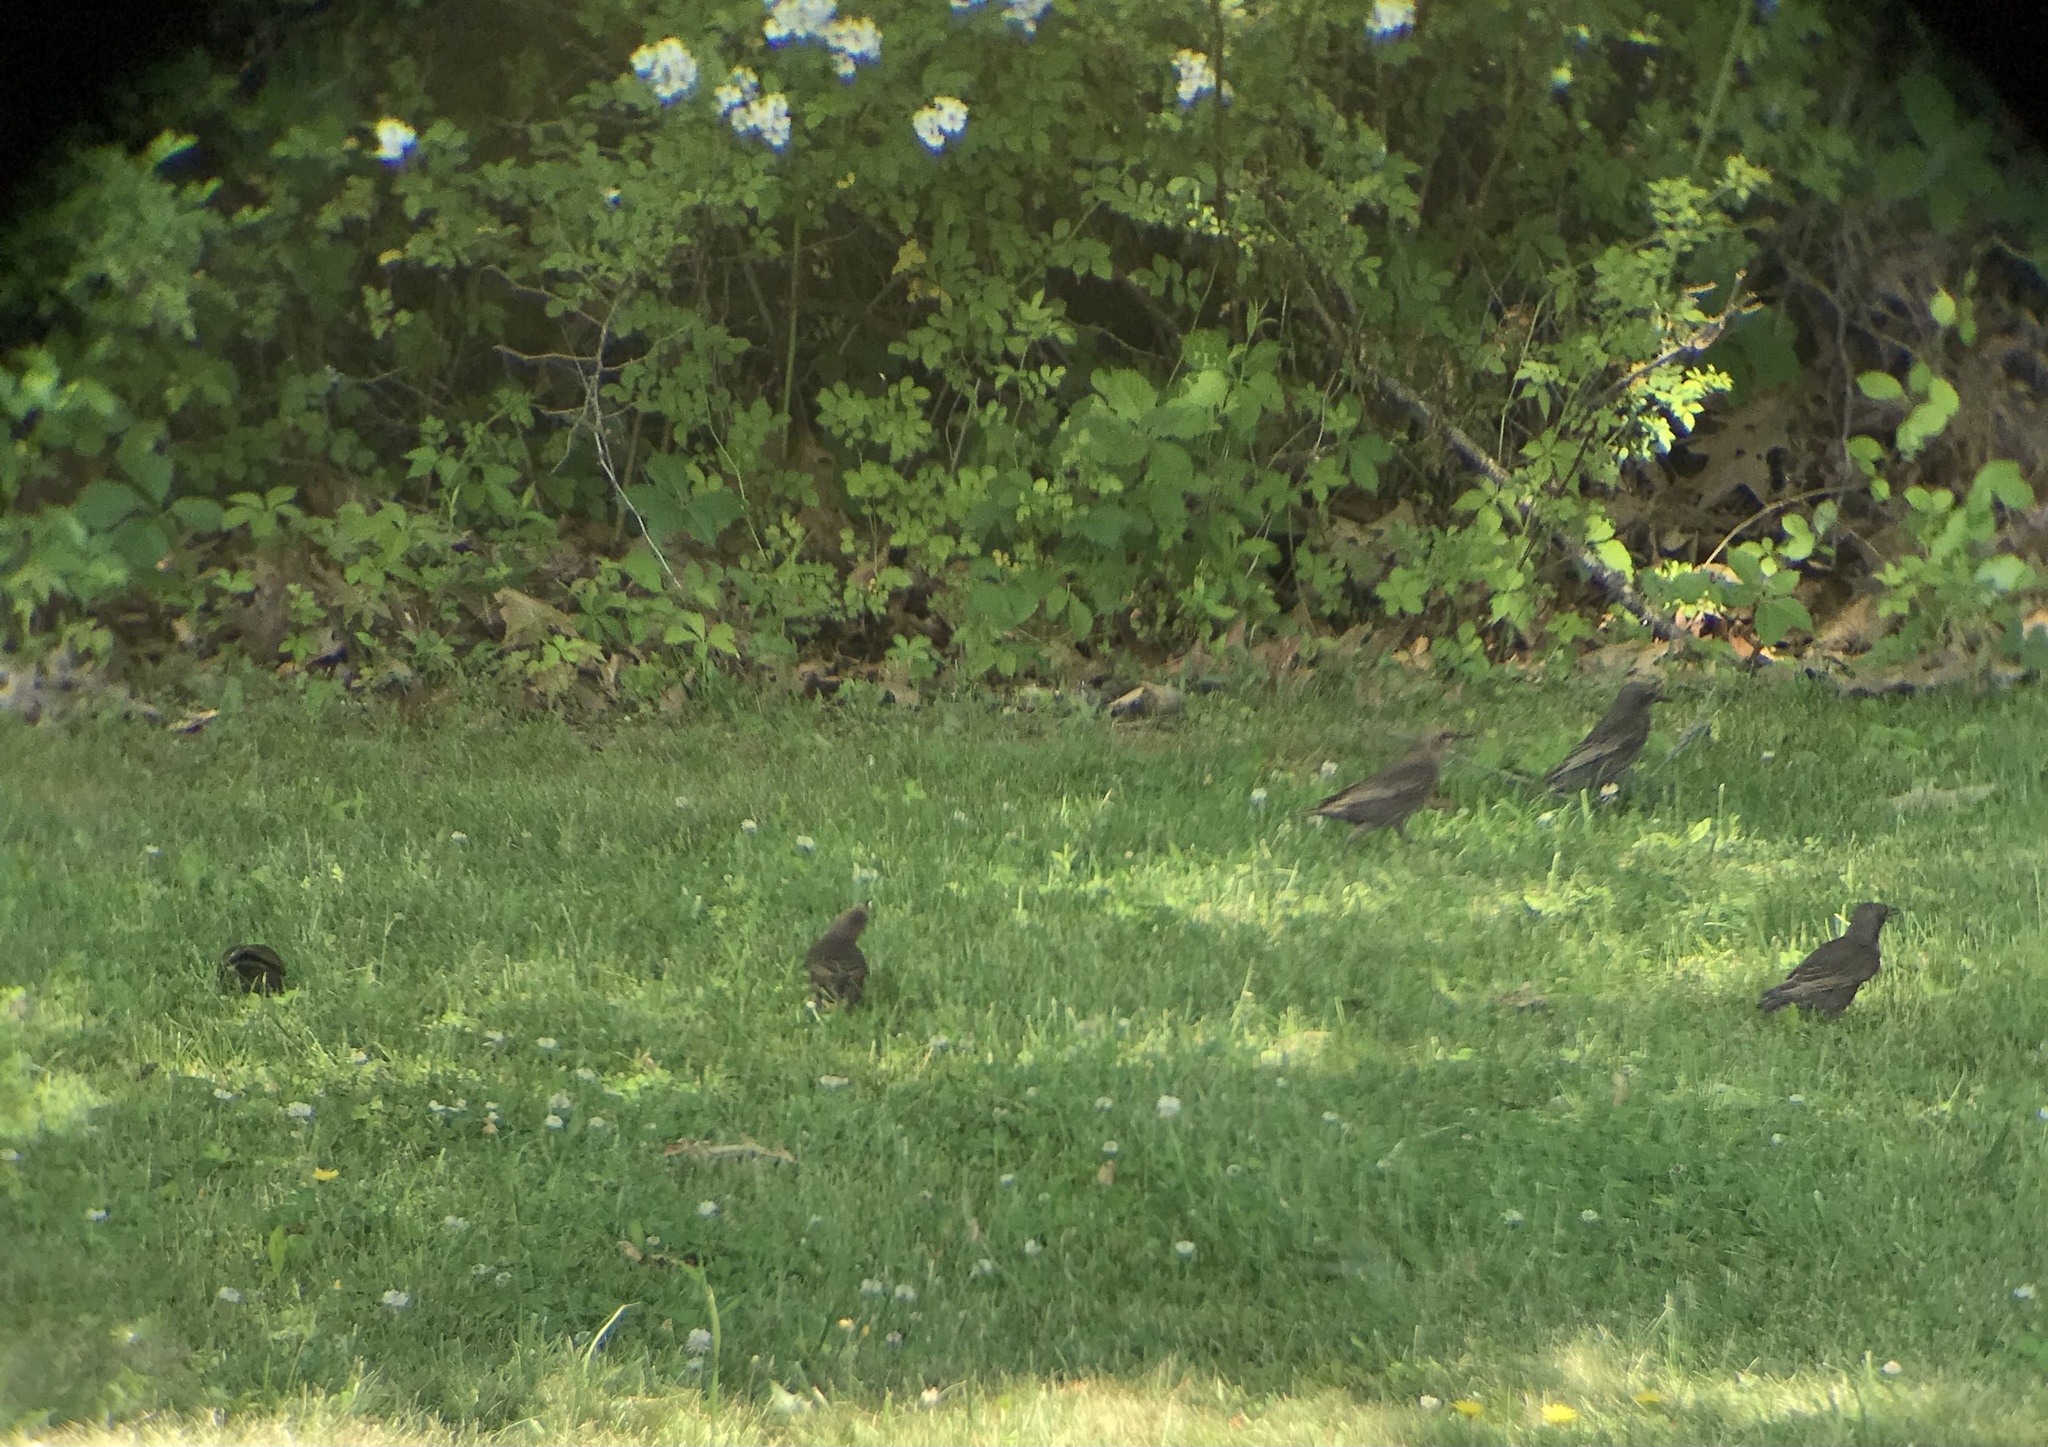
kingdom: Animalia
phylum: Chordata
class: Aves
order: Passeriformes
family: Sturnidae
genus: Sturnus
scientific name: Sturnus vulgaris
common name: Common starling
